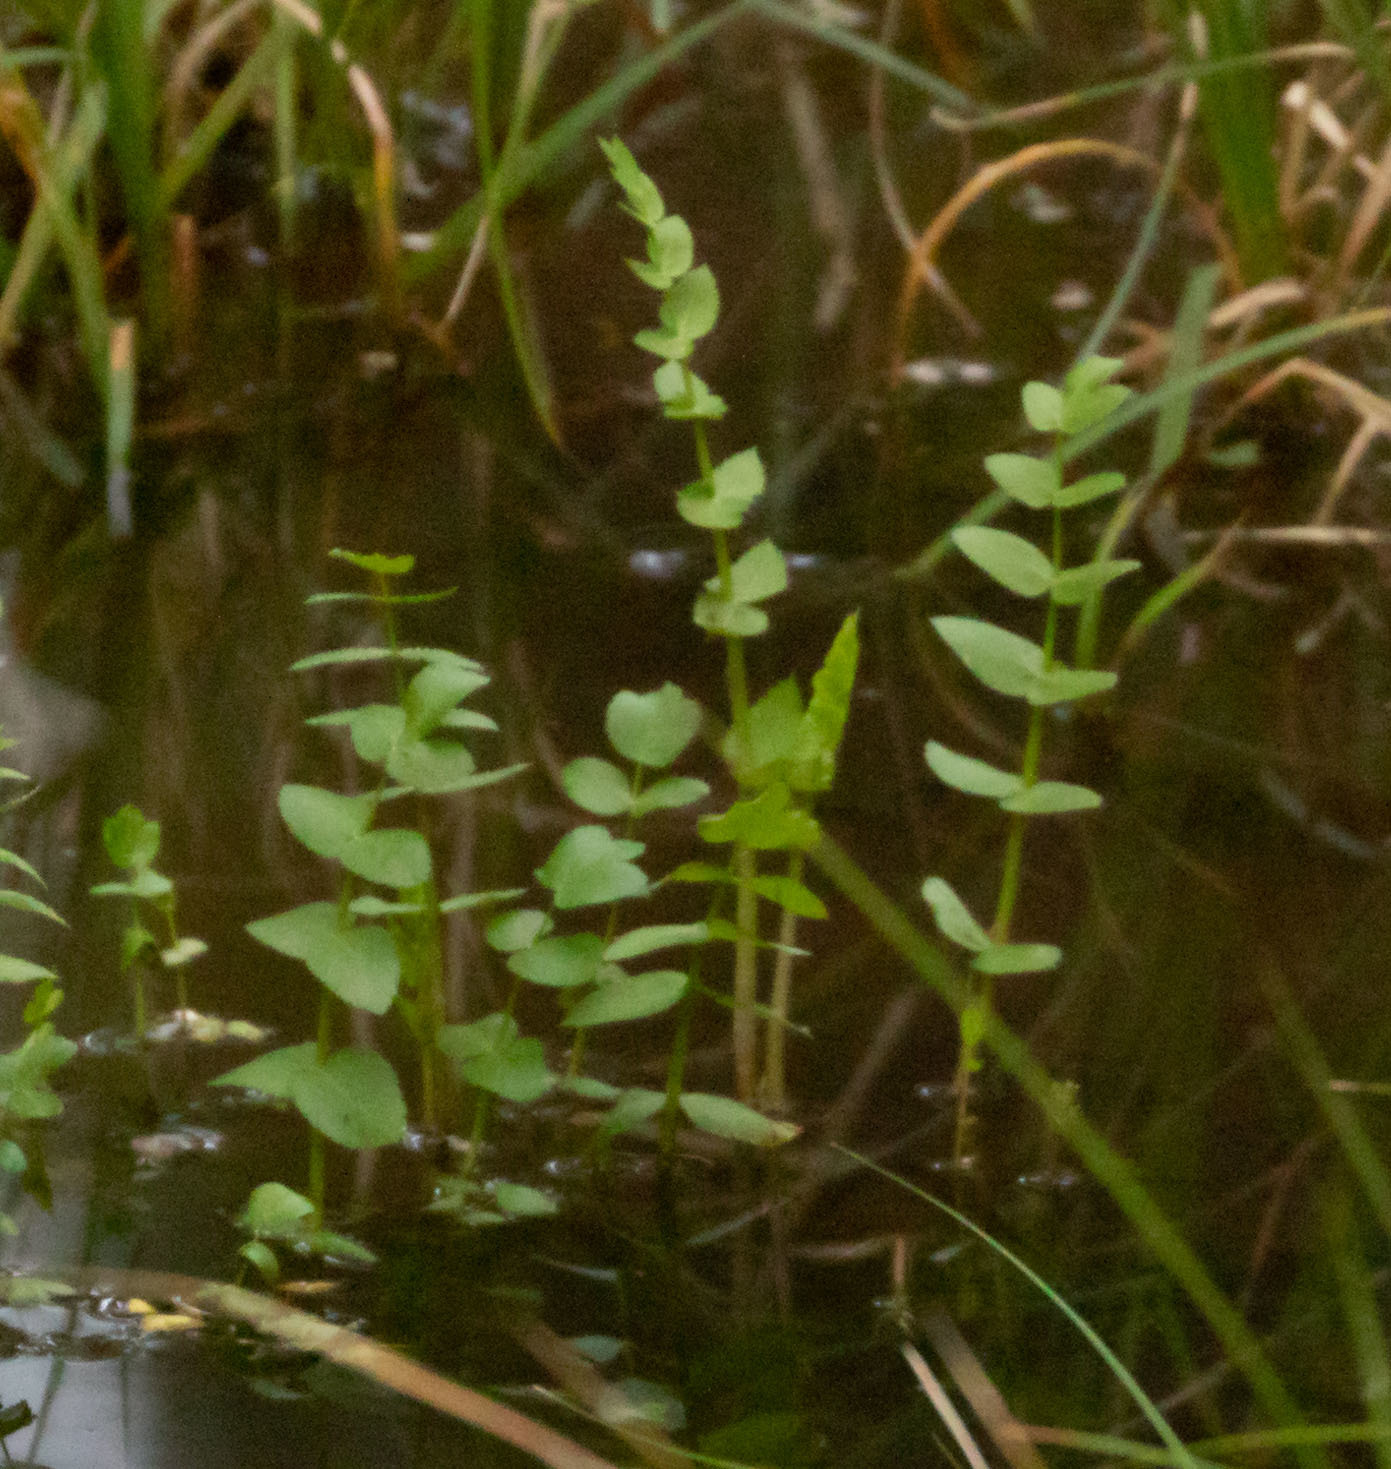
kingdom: Plantae
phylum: Tracheophyta
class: Magnoliopsida
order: Apiales
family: Apiaceae
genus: Berula
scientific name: Berula erecta
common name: Lesser water-parsnip
